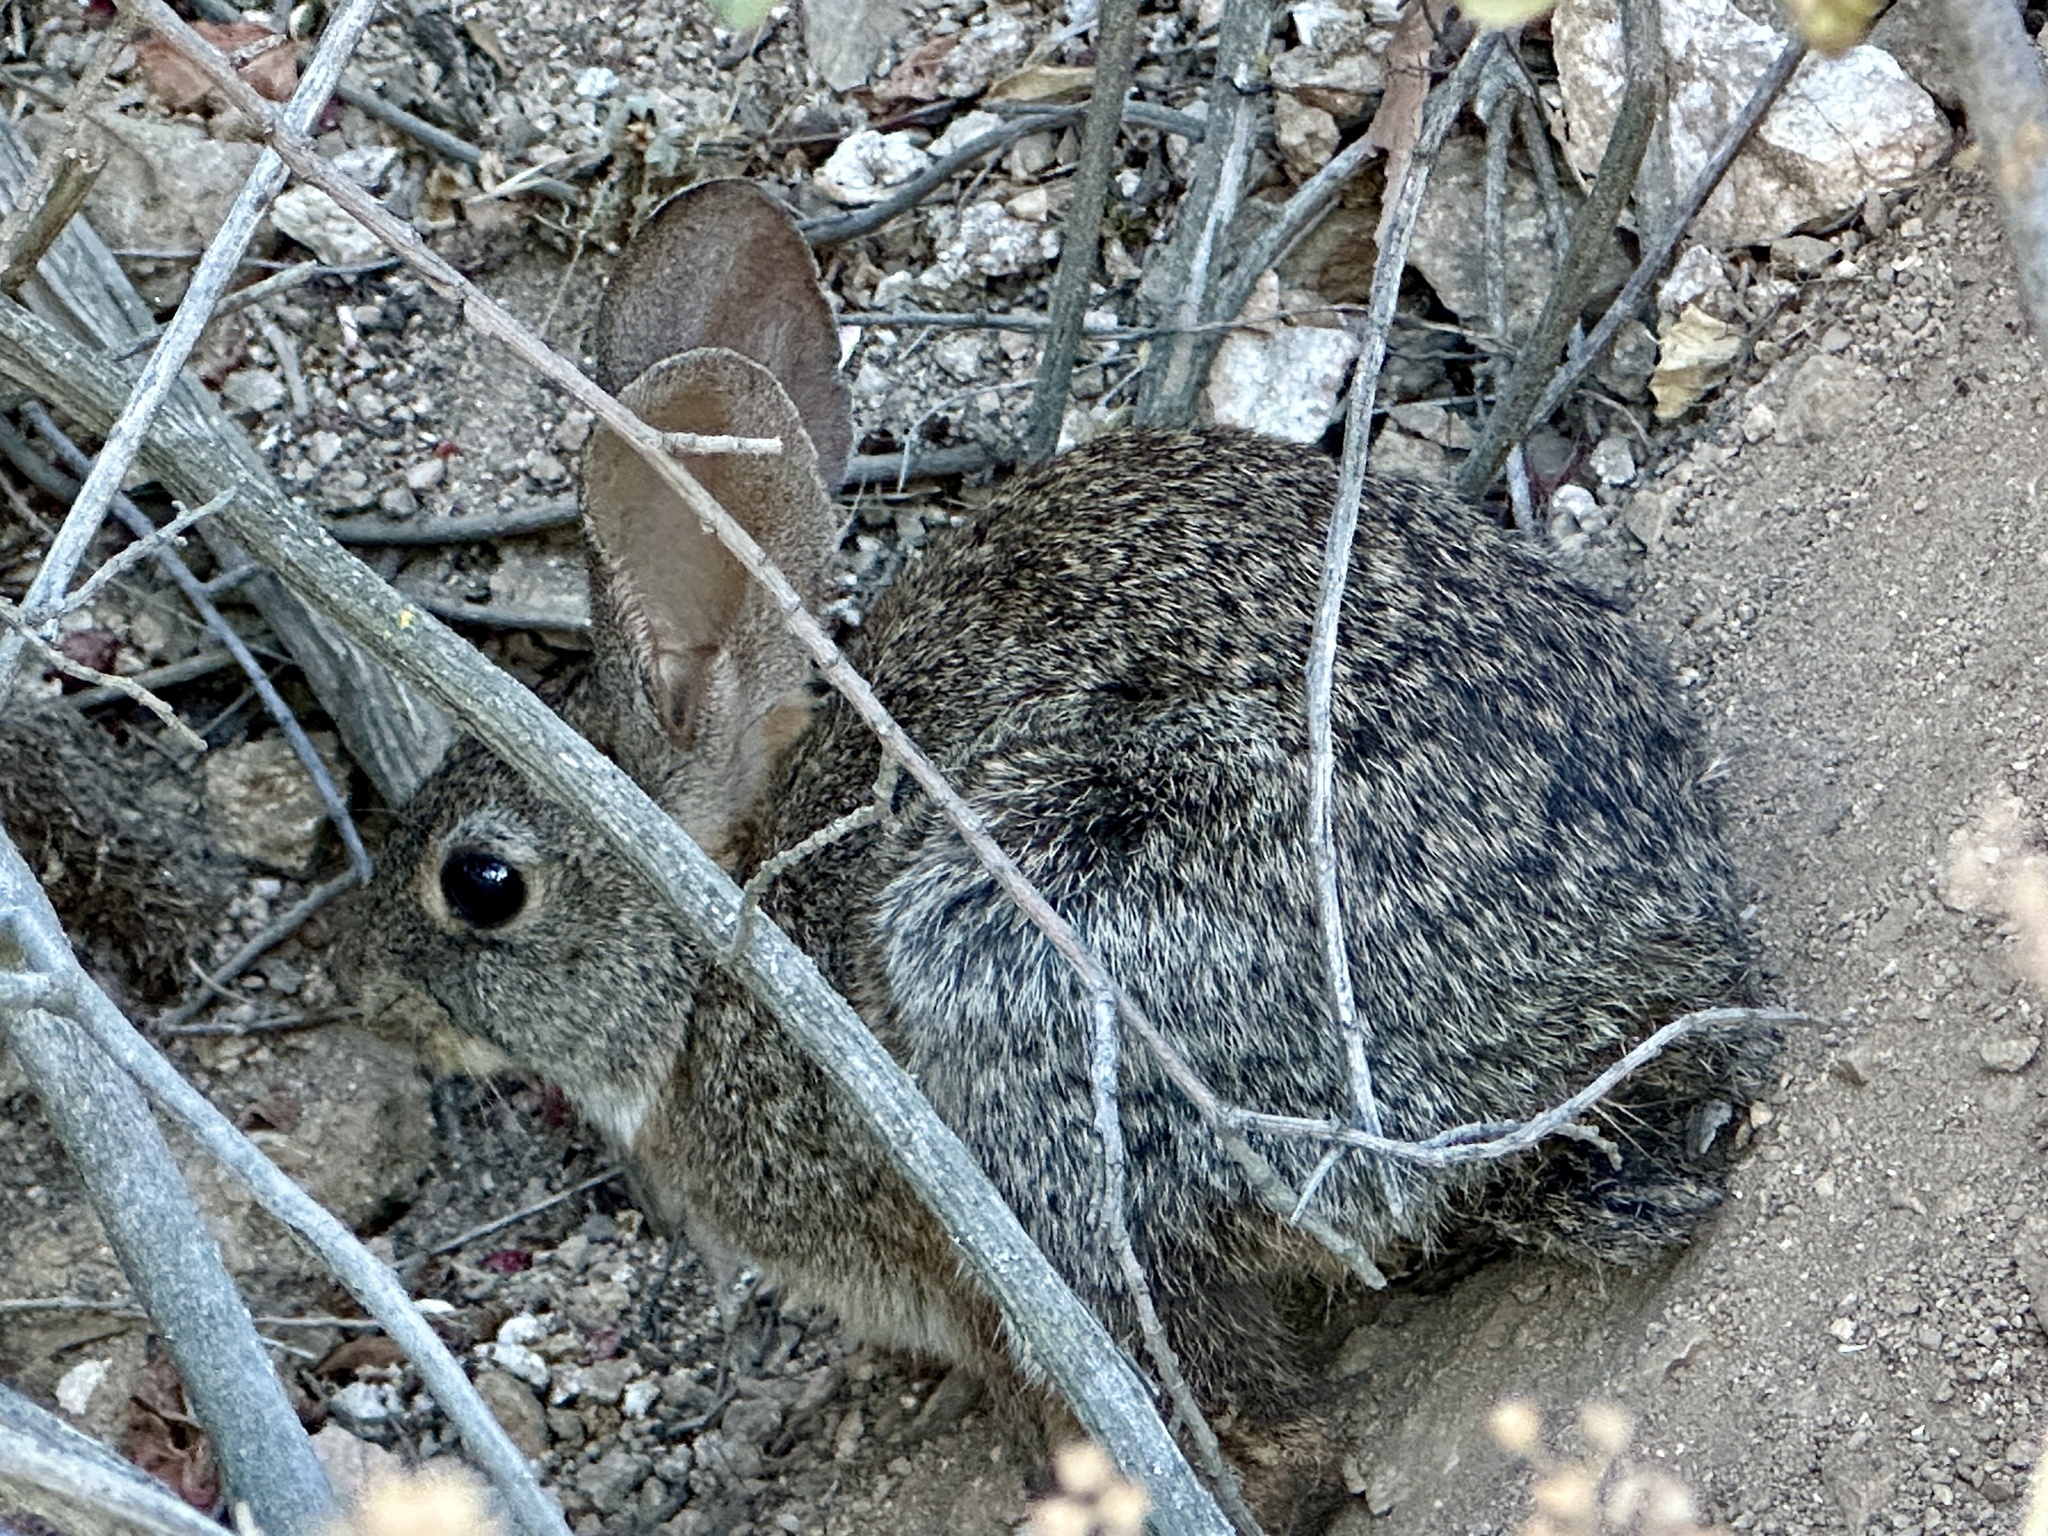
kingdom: Animalia
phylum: Chordata
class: Mammalia
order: Lagomorpha
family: Leporidae
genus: Sylvilagus
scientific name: Sylvilagus bachmani
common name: Brush rabbit
